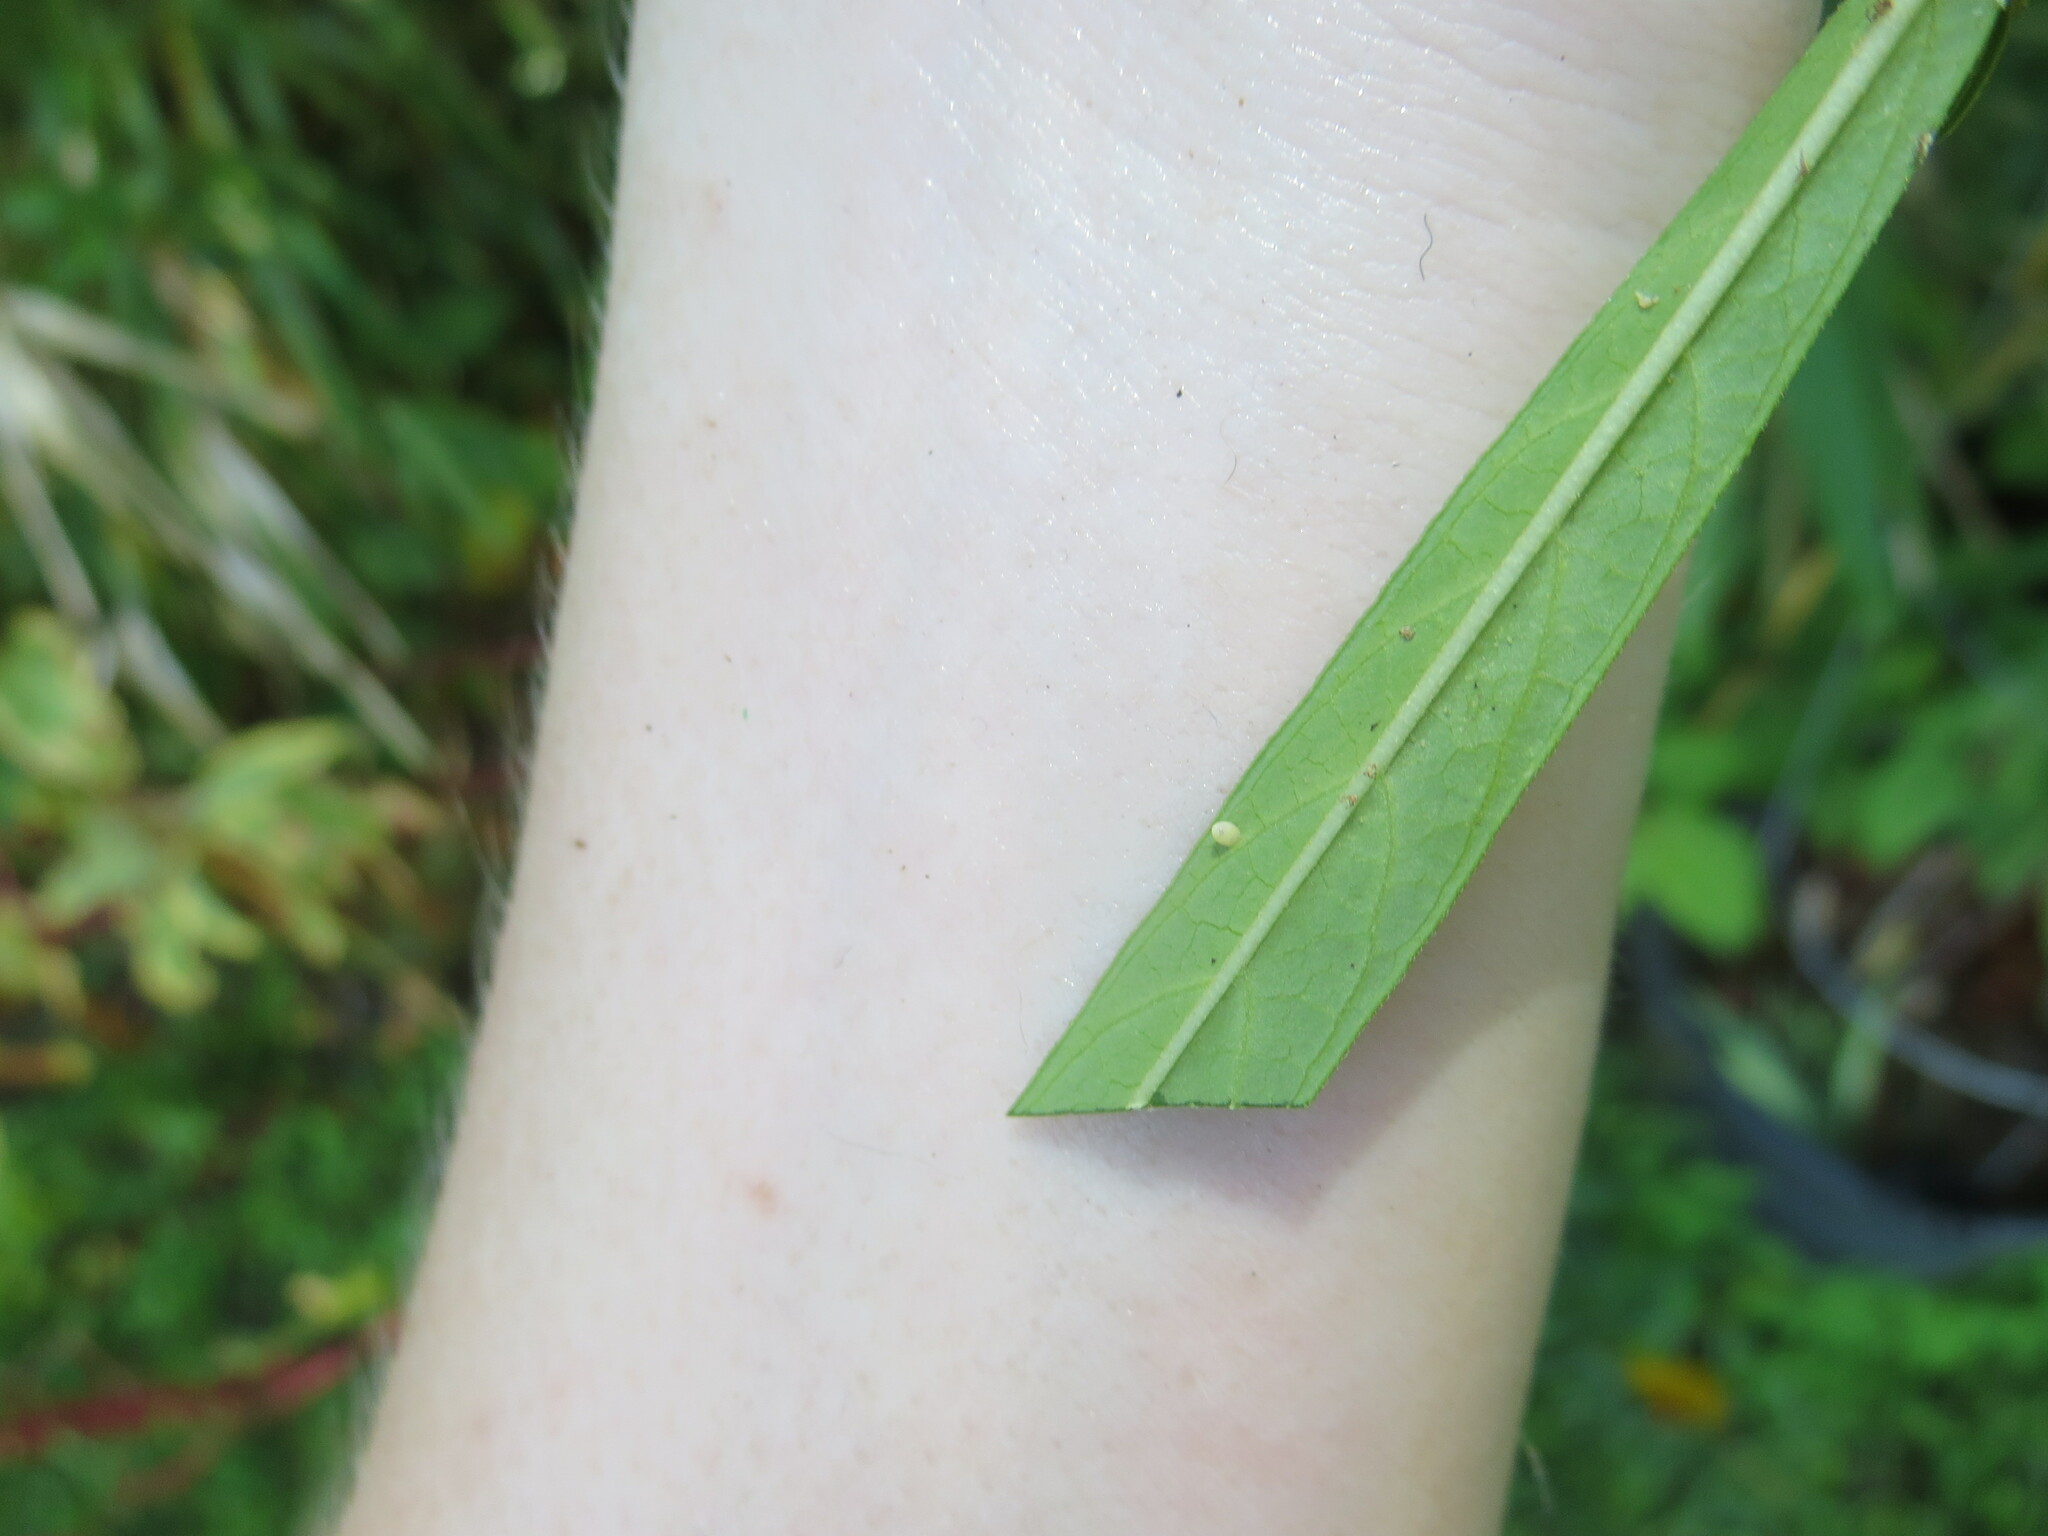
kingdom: Animalia
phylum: Arthropoda
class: Insecta
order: Lepidoptera
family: Nymphalidae
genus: Danaus
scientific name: Danaus plexippus
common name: Monarch
